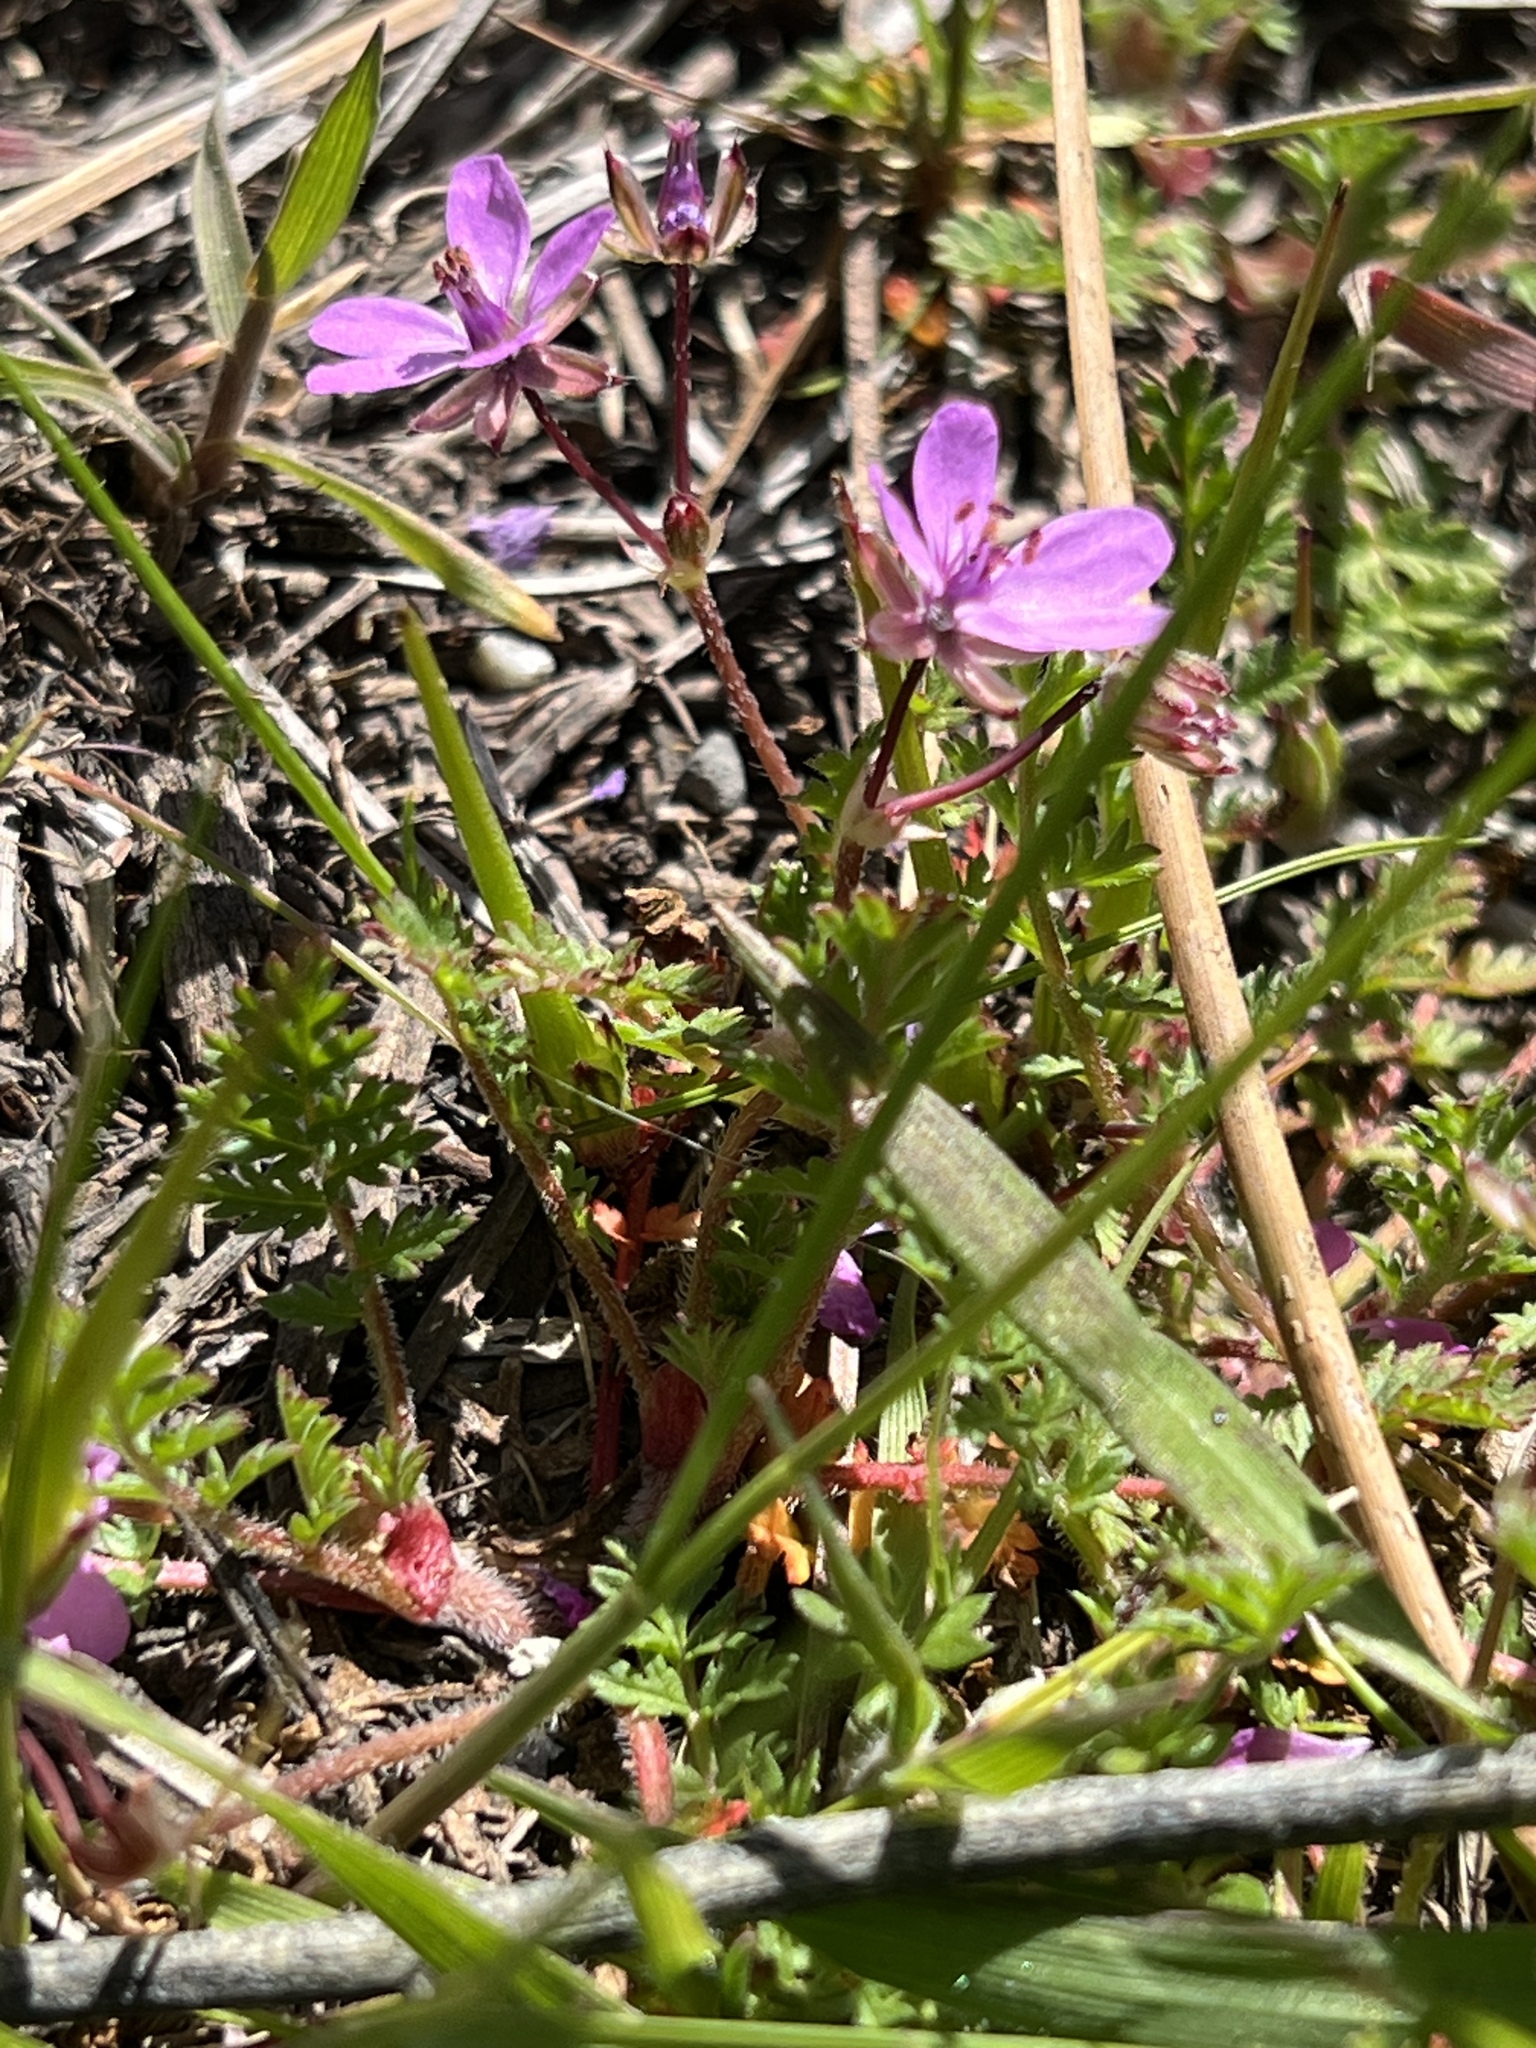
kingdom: Plantae
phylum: Tracheophyta
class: Magnoliopsida
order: Geraniales
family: Geraniaceae
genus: Erodium
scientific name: Erodium cicutarium
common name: Common stork's-bill
